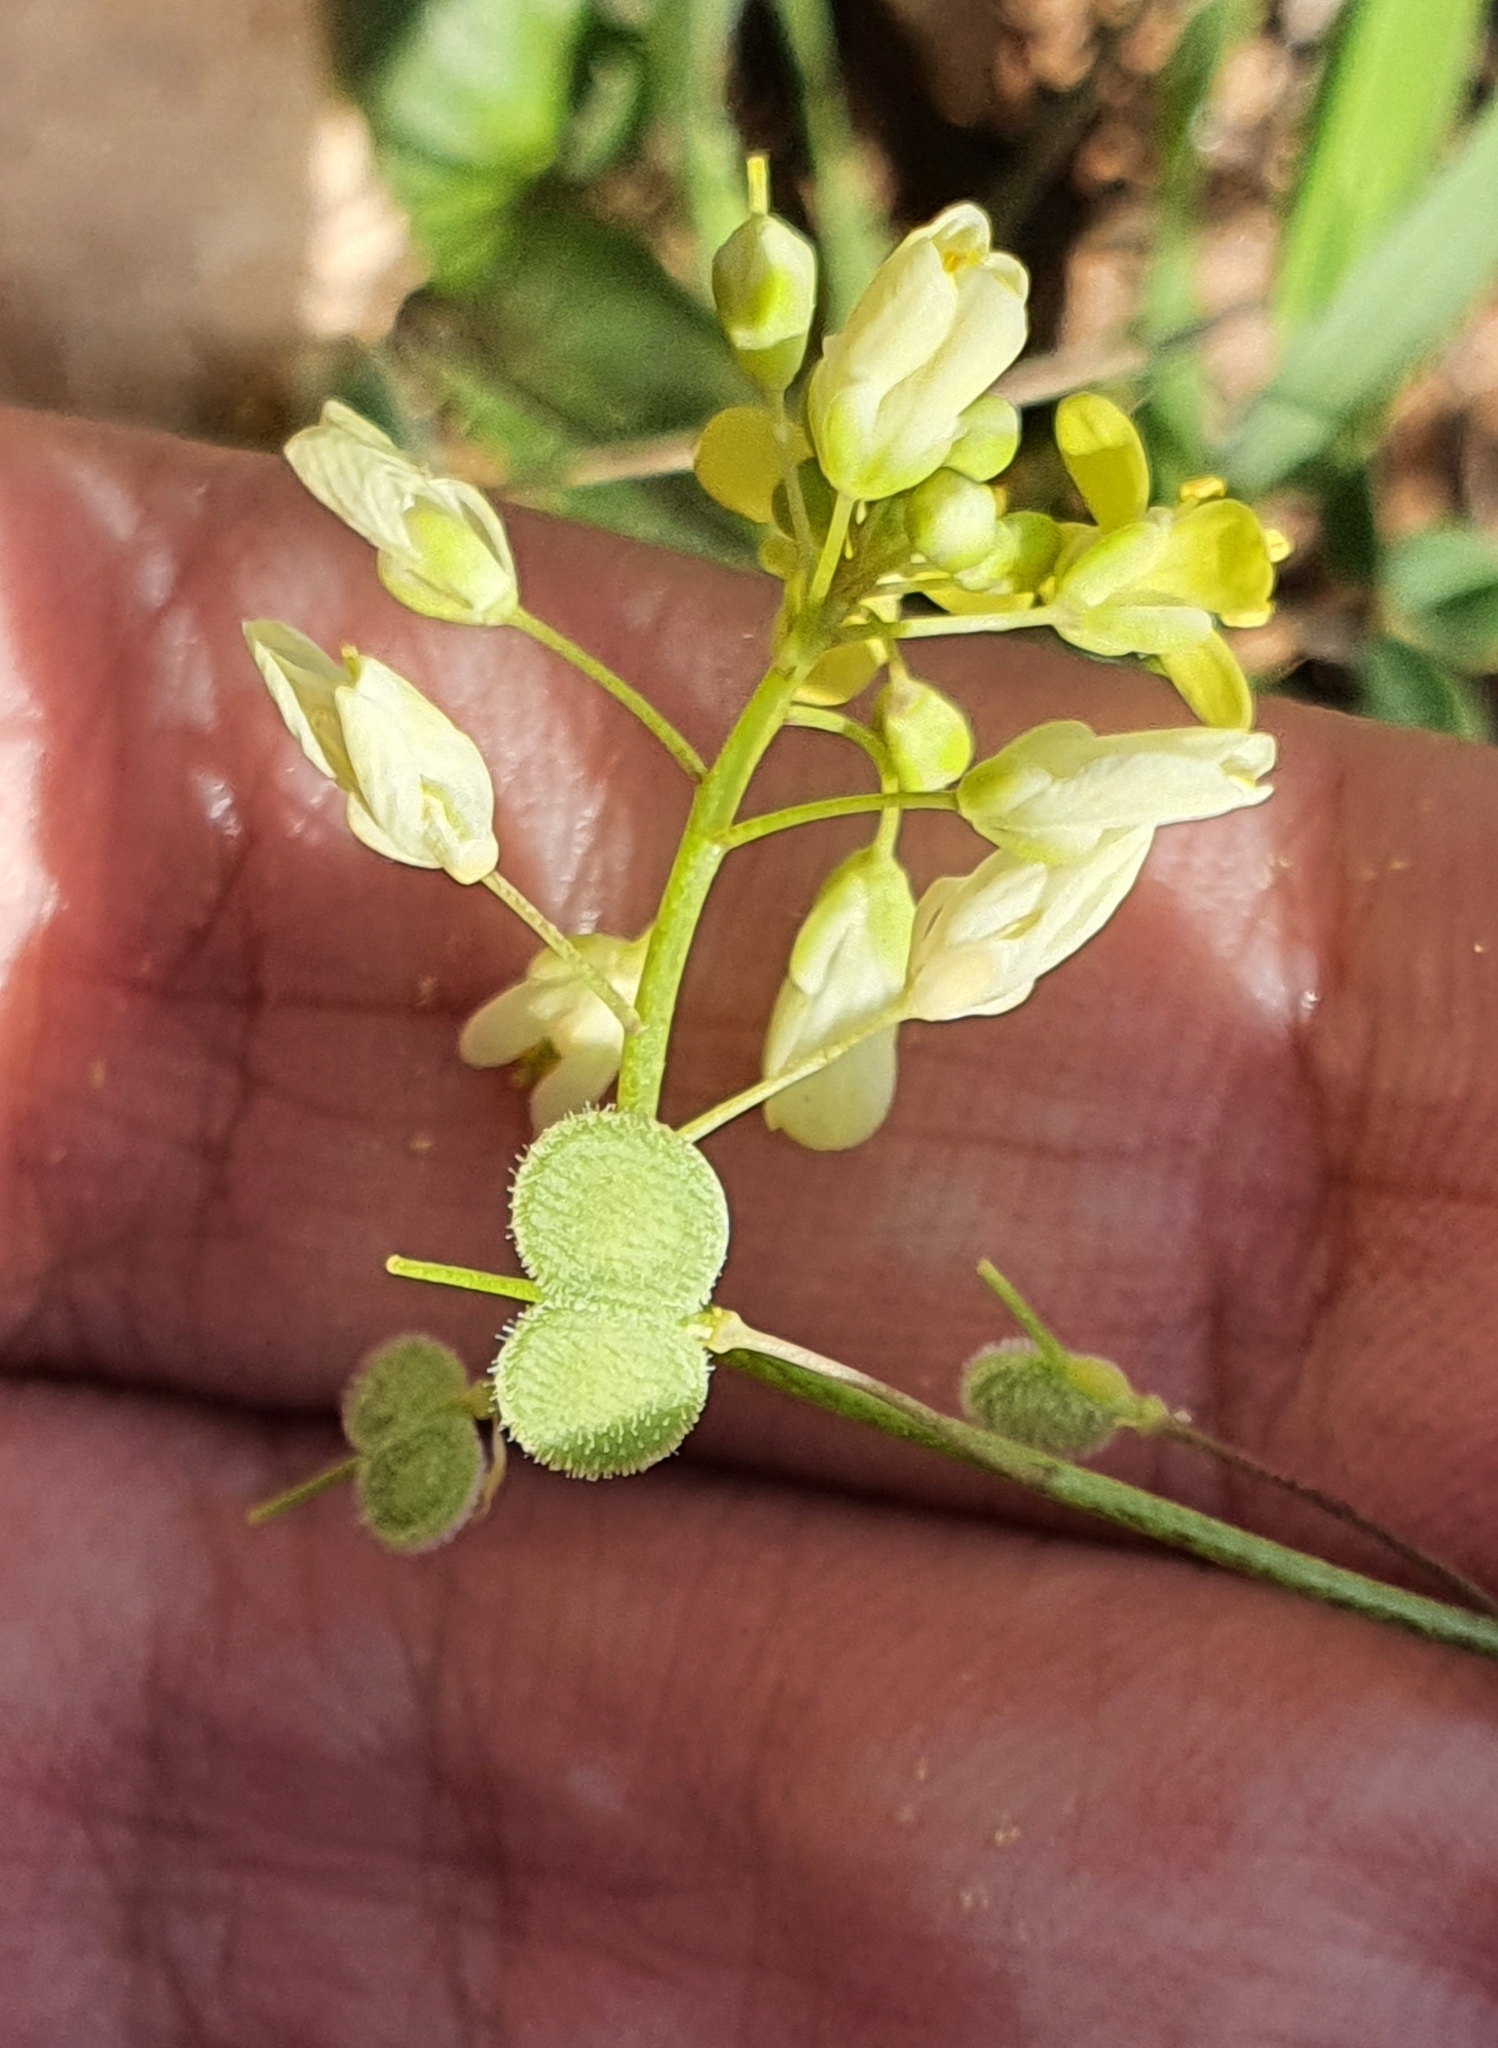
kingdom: Plantae
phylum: Tracheophyta
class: Magnoliopsida
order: Brassicales
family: Brassicaceae
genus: Biscutella
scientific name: Biscutella didyma
